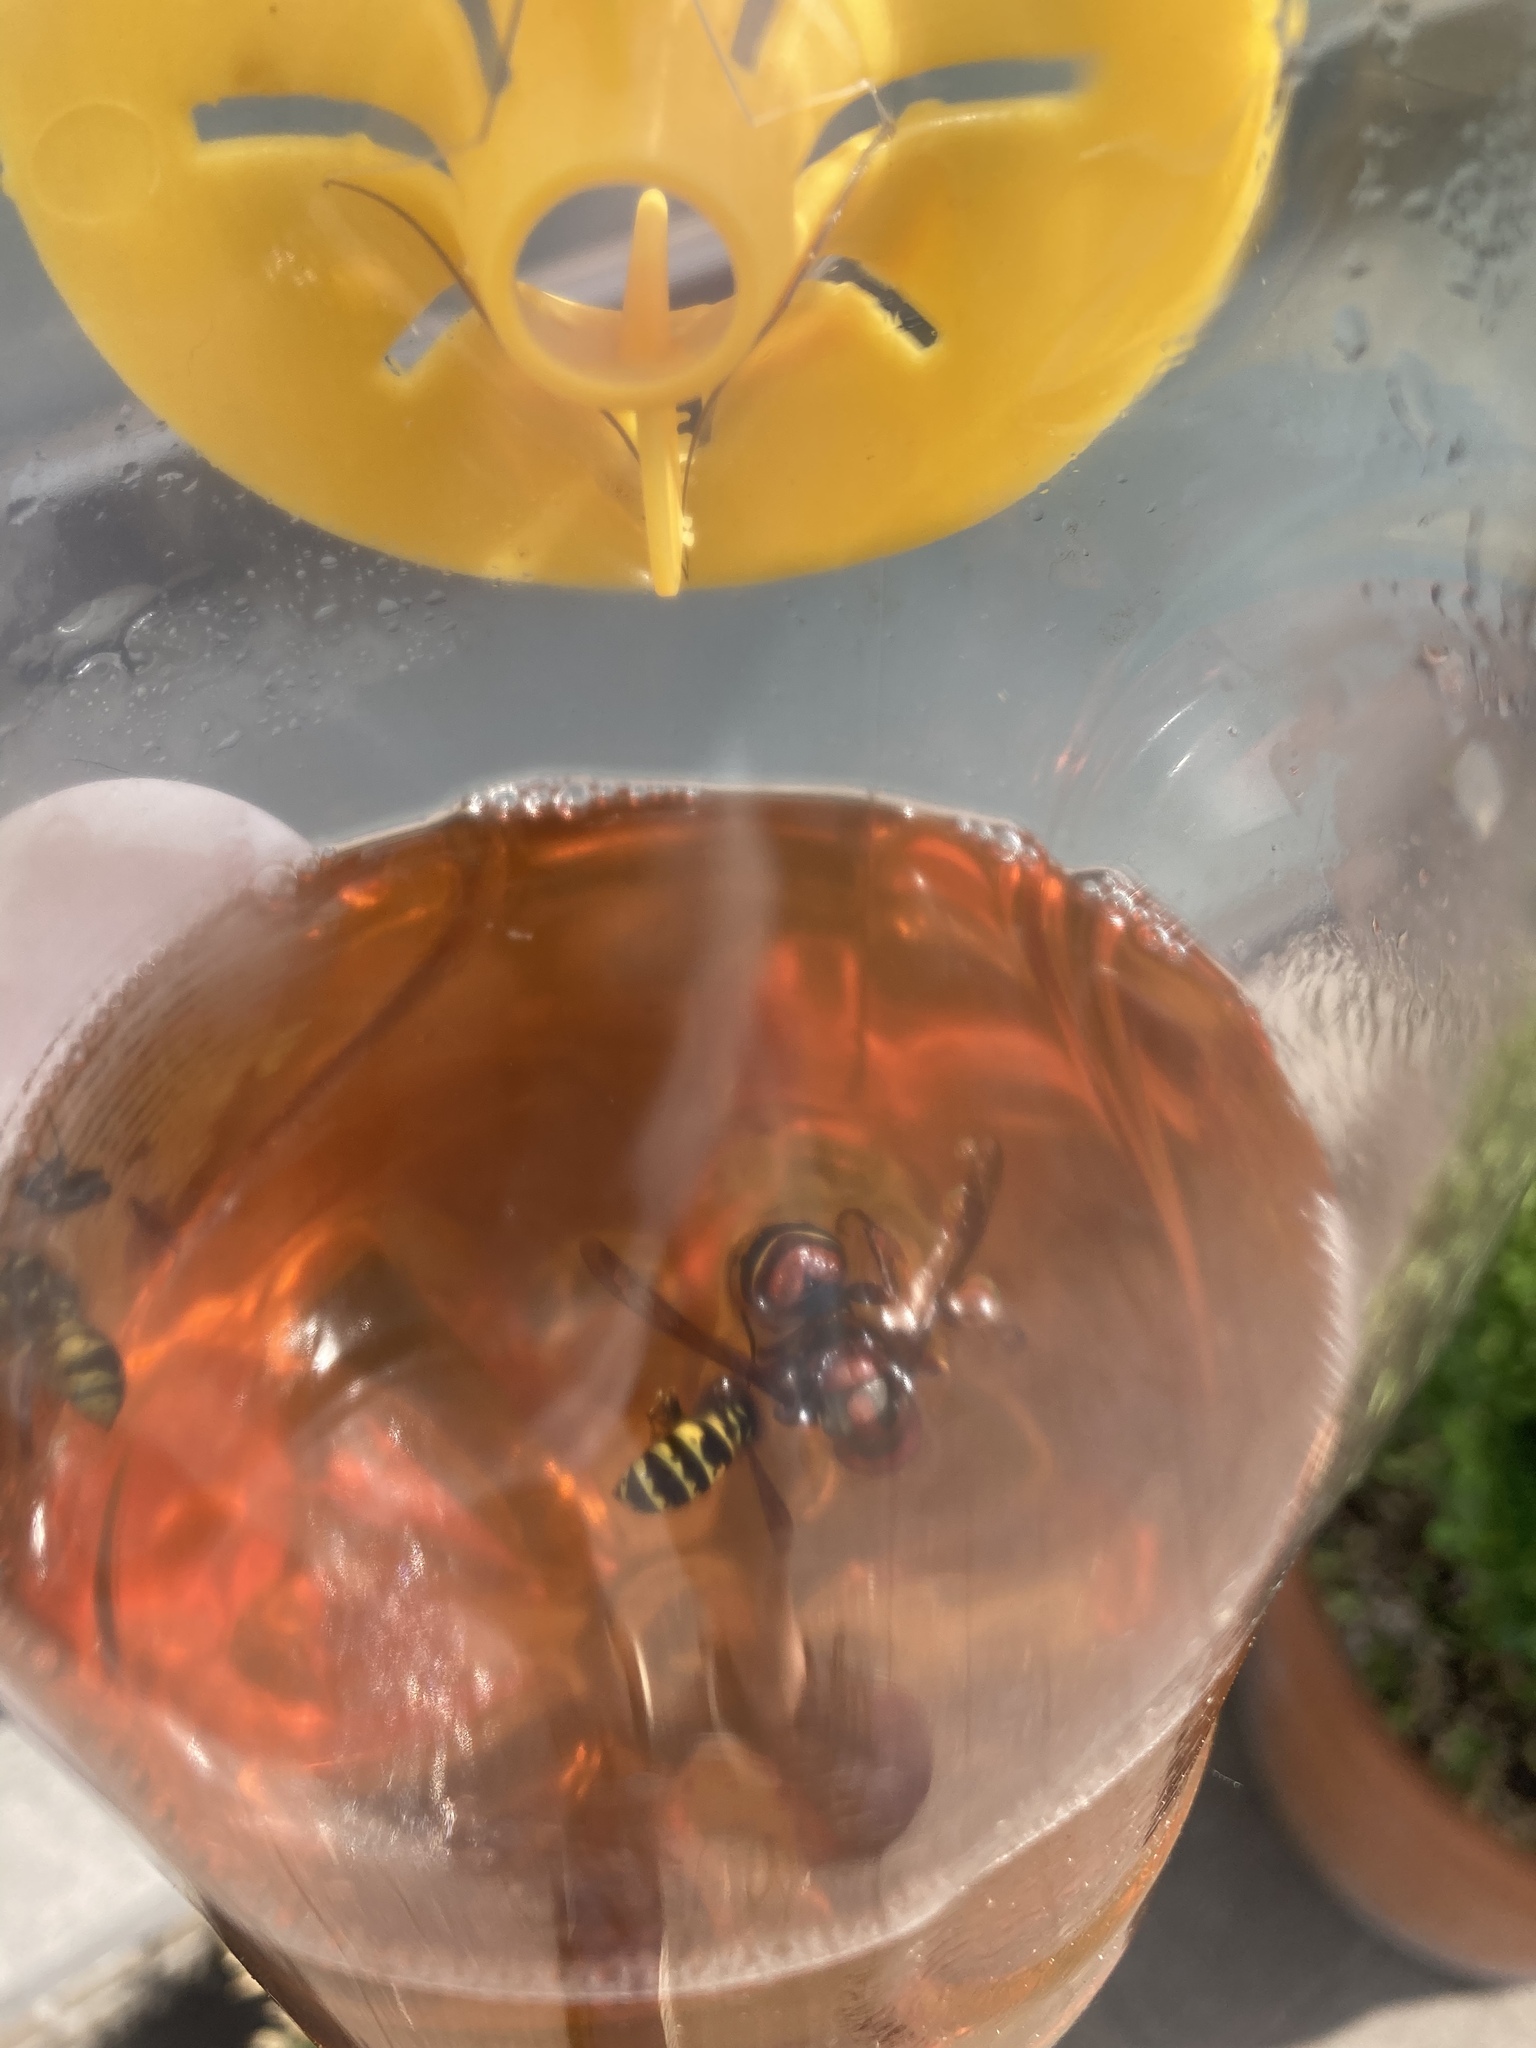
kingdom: Animalia
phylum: Arthropoda
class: Insecta
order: Hymenoptera
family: Vespidae
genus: Vespa
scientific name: Vespa crabro
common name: Hornet
